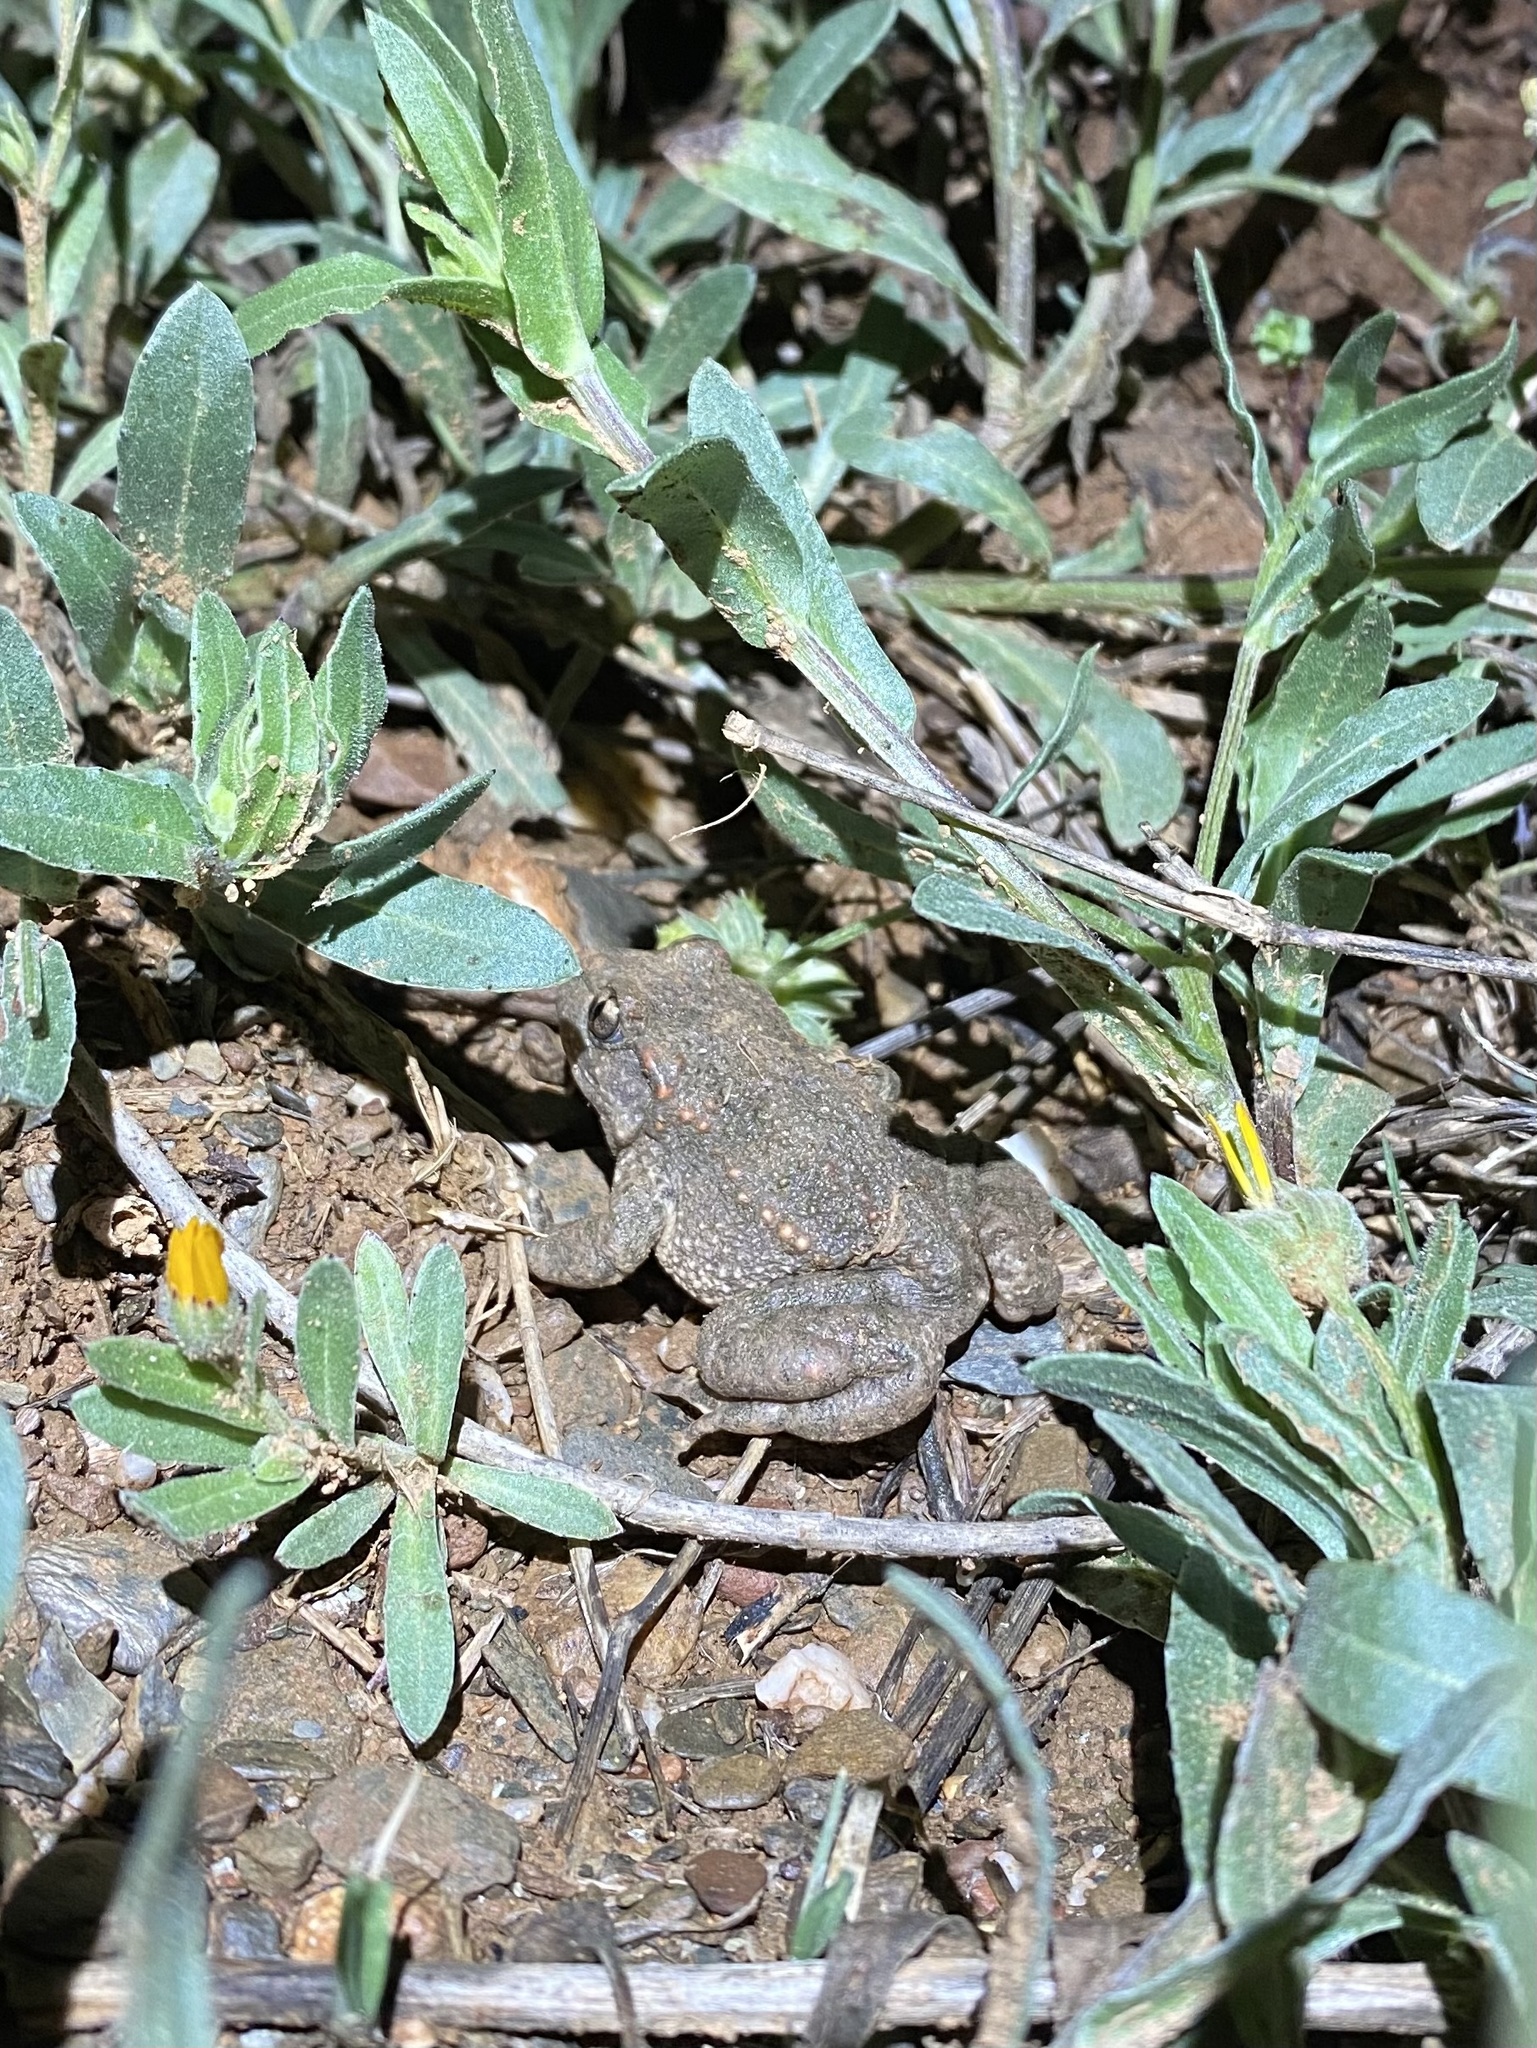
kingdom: Animalia
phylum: Chordata
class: Amphibia
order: Anura
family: Alytidae
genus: Alytes
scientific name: Alytes obstetricans
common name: Midwife toad
